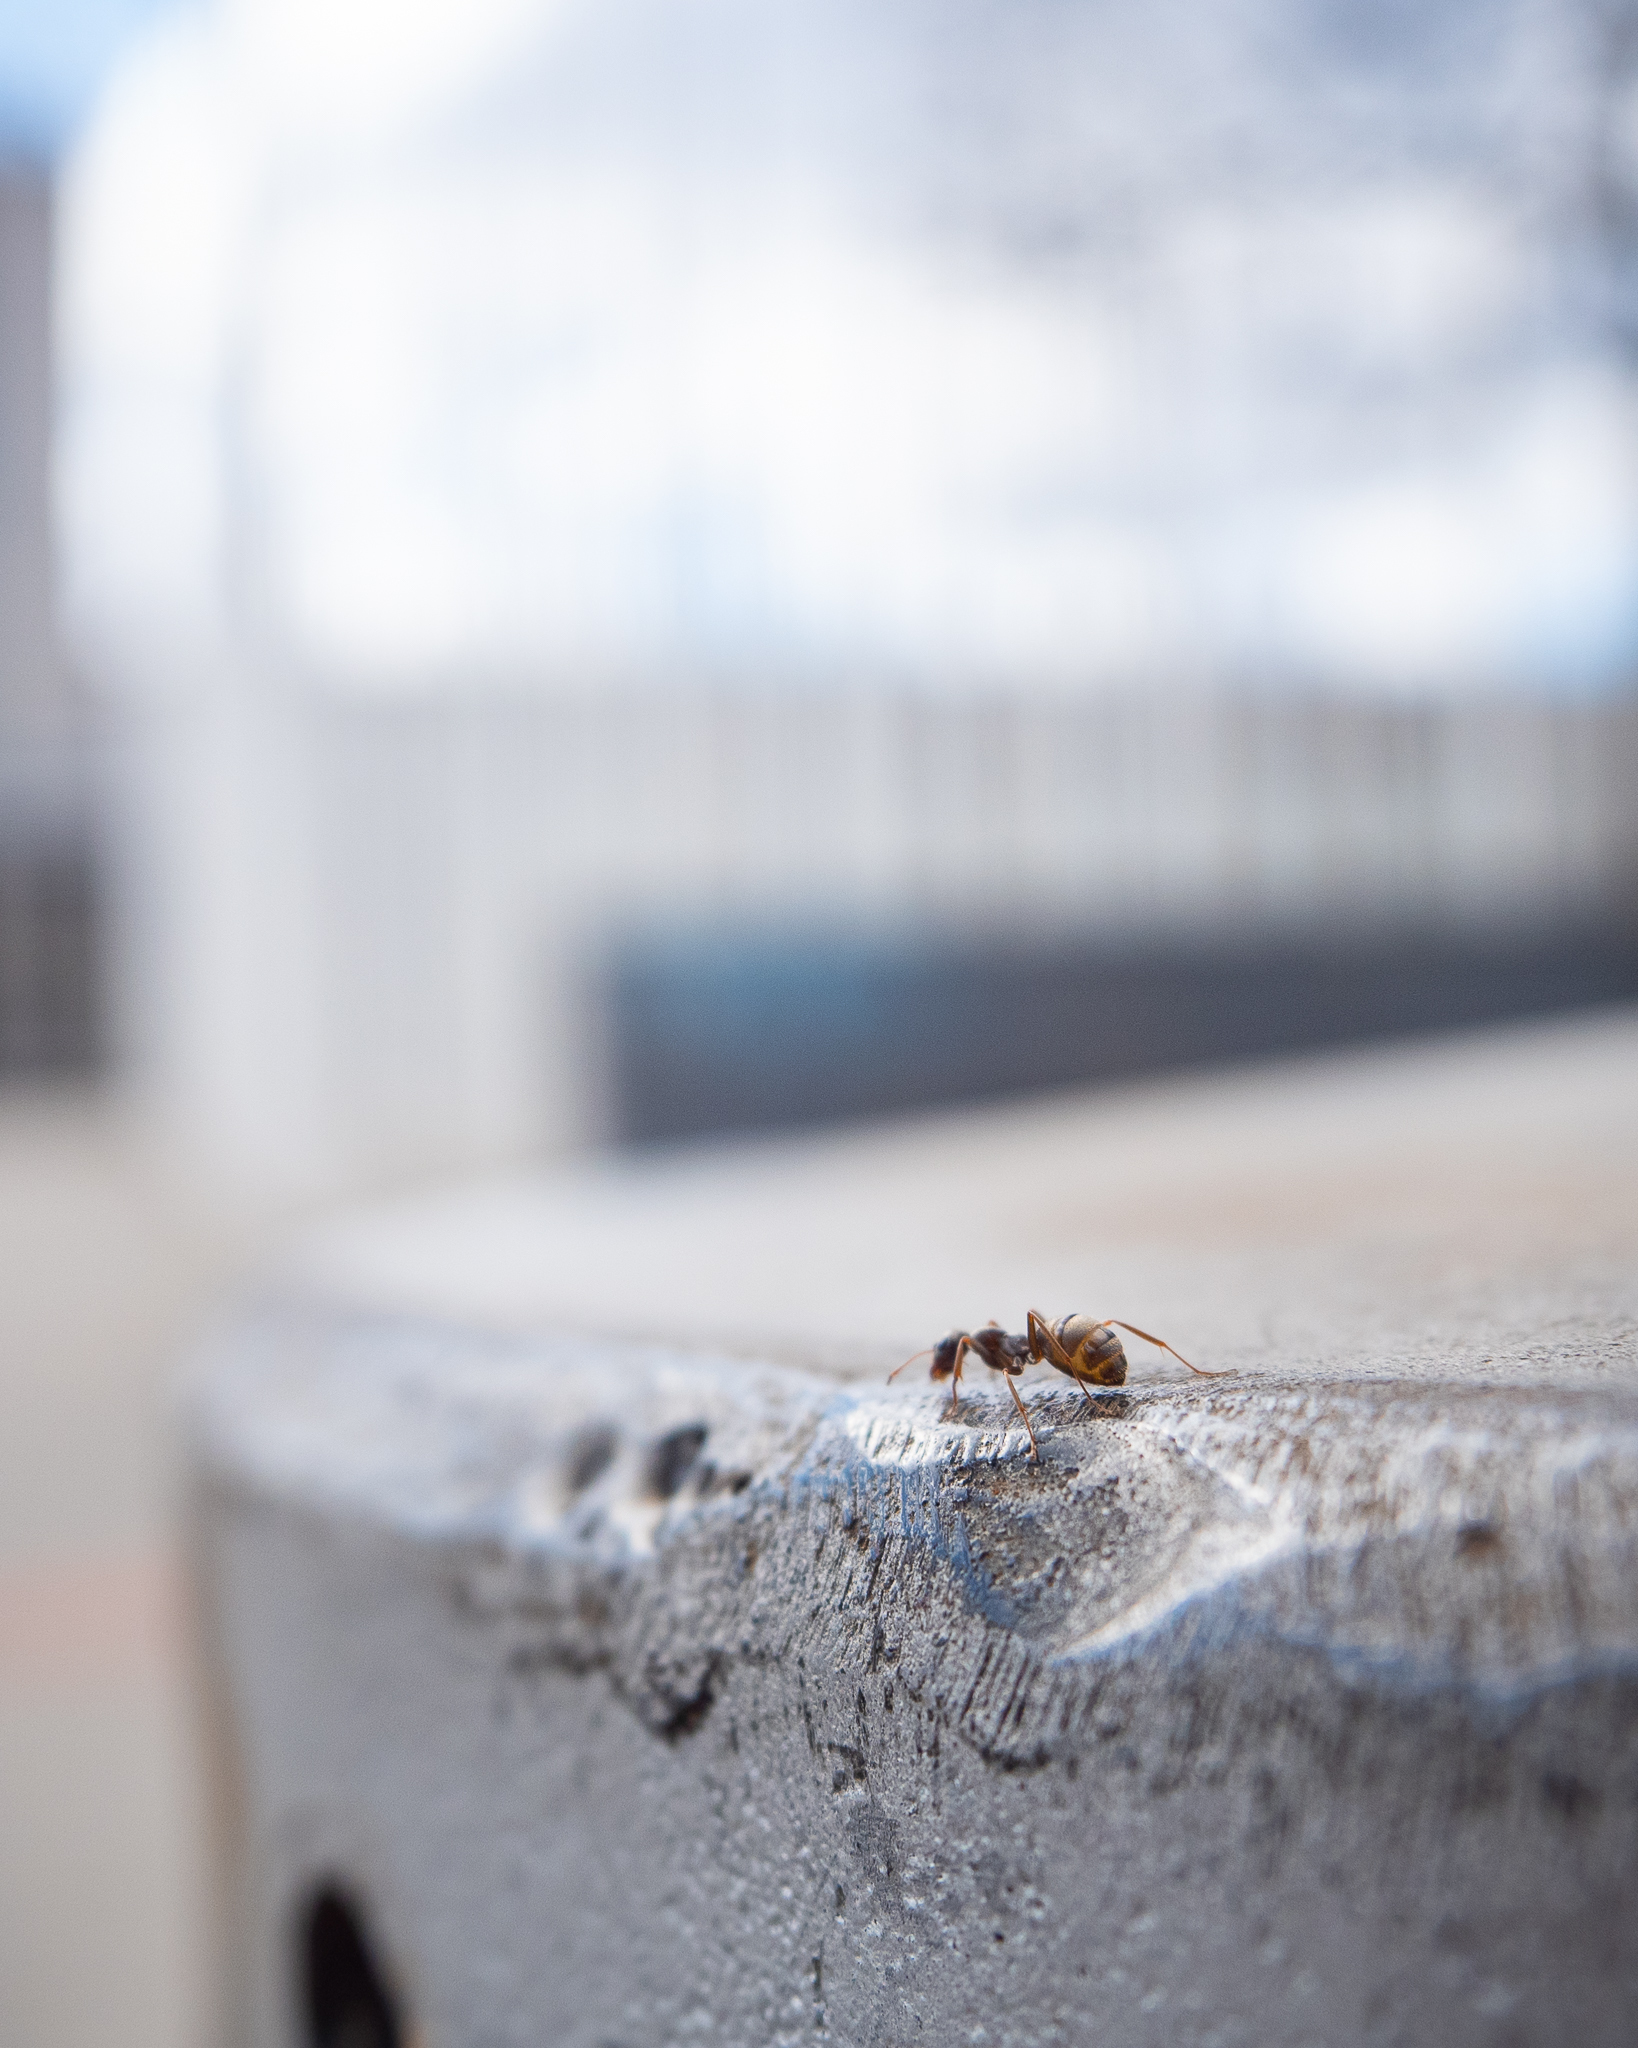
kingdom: Animalia
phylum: Arthropoda
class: Insecta
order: Hymenoptera
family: Formicidae
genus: Formica
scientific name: Formica cinerea
